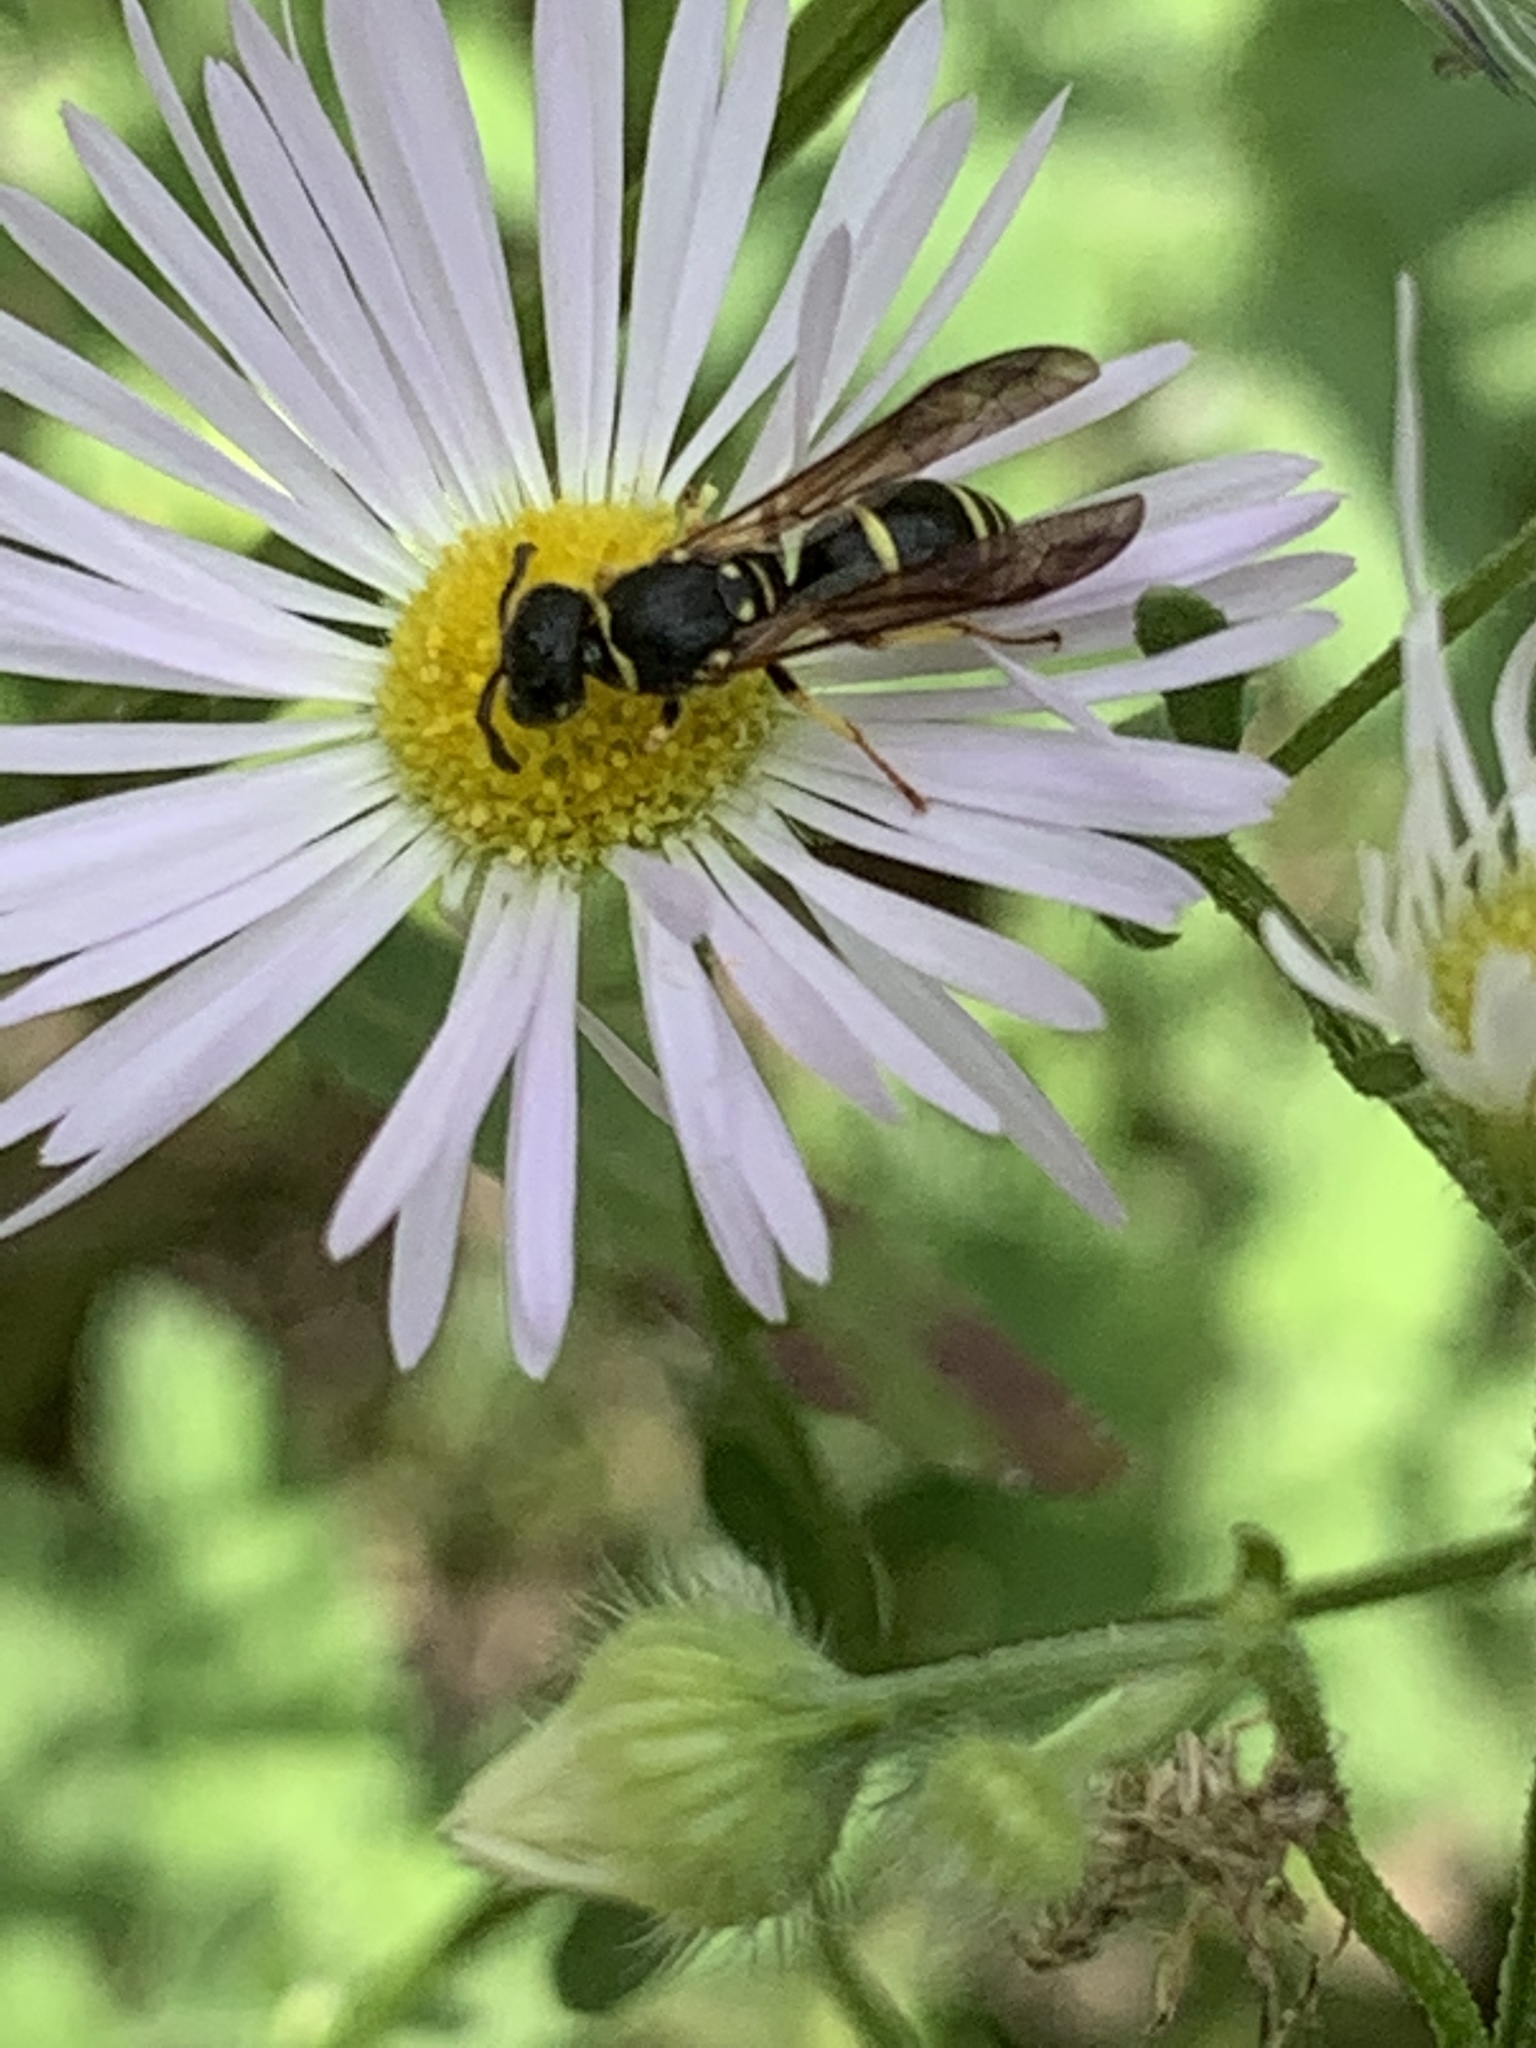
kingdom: Animalia
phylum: Arthropoda
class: Insecta
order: Hymenoptera
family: Vespidae
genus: Ancistrocerus
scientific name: Ancistrocerus
